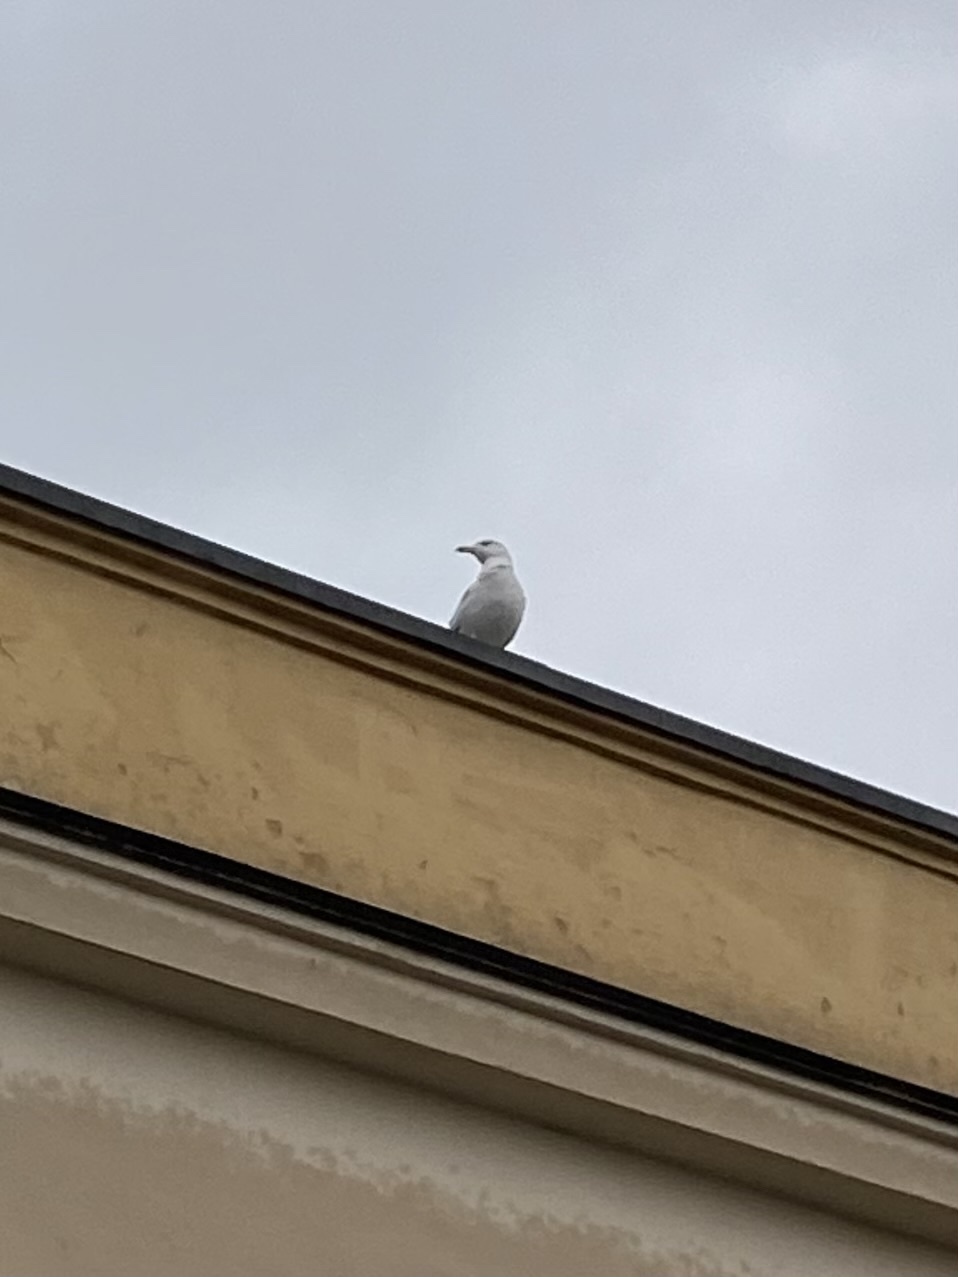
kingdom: Animalia
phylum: Chordata
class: Aves
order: Charadriiformes
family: Laridae
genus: Larus
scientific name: Larus canus
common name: Mew gull
